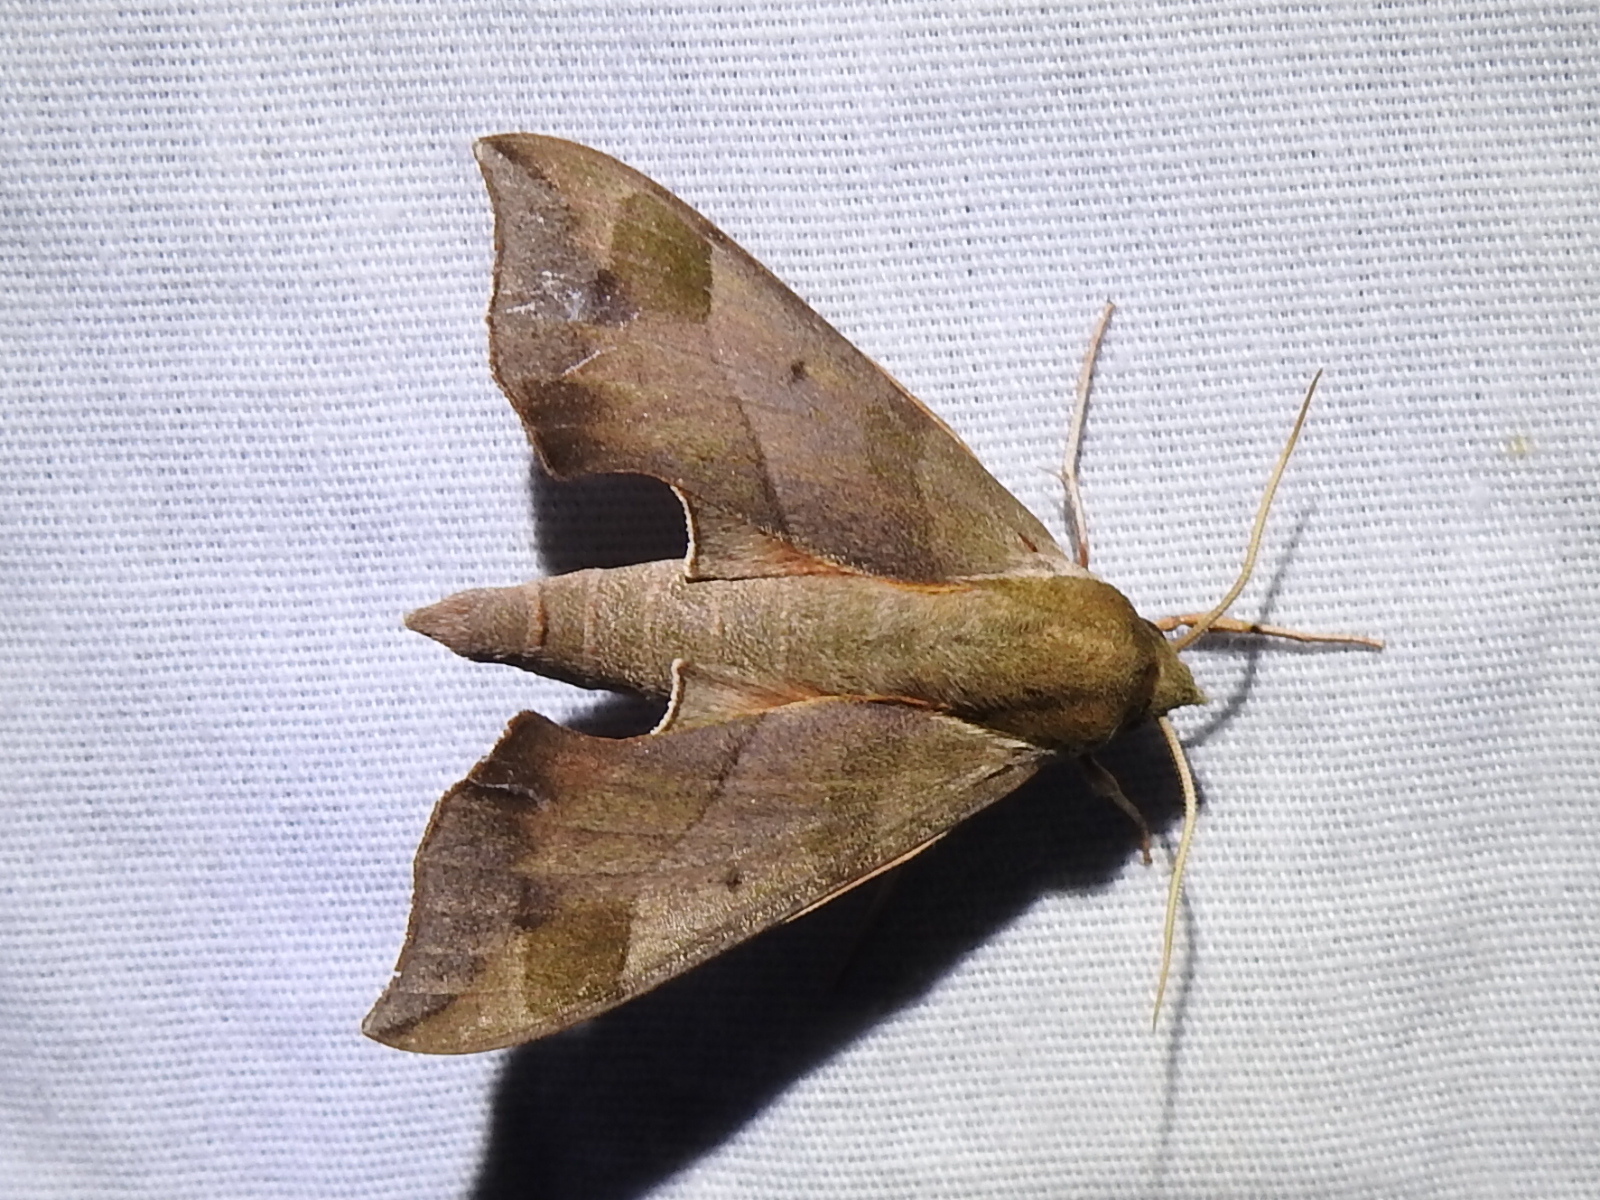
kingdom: Animalia
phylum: Arthropoda
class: Insecta
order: Lepidoptera
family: Sphingidae
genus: Darapsa
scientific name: Darapsa myron
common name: Hog sphinx
